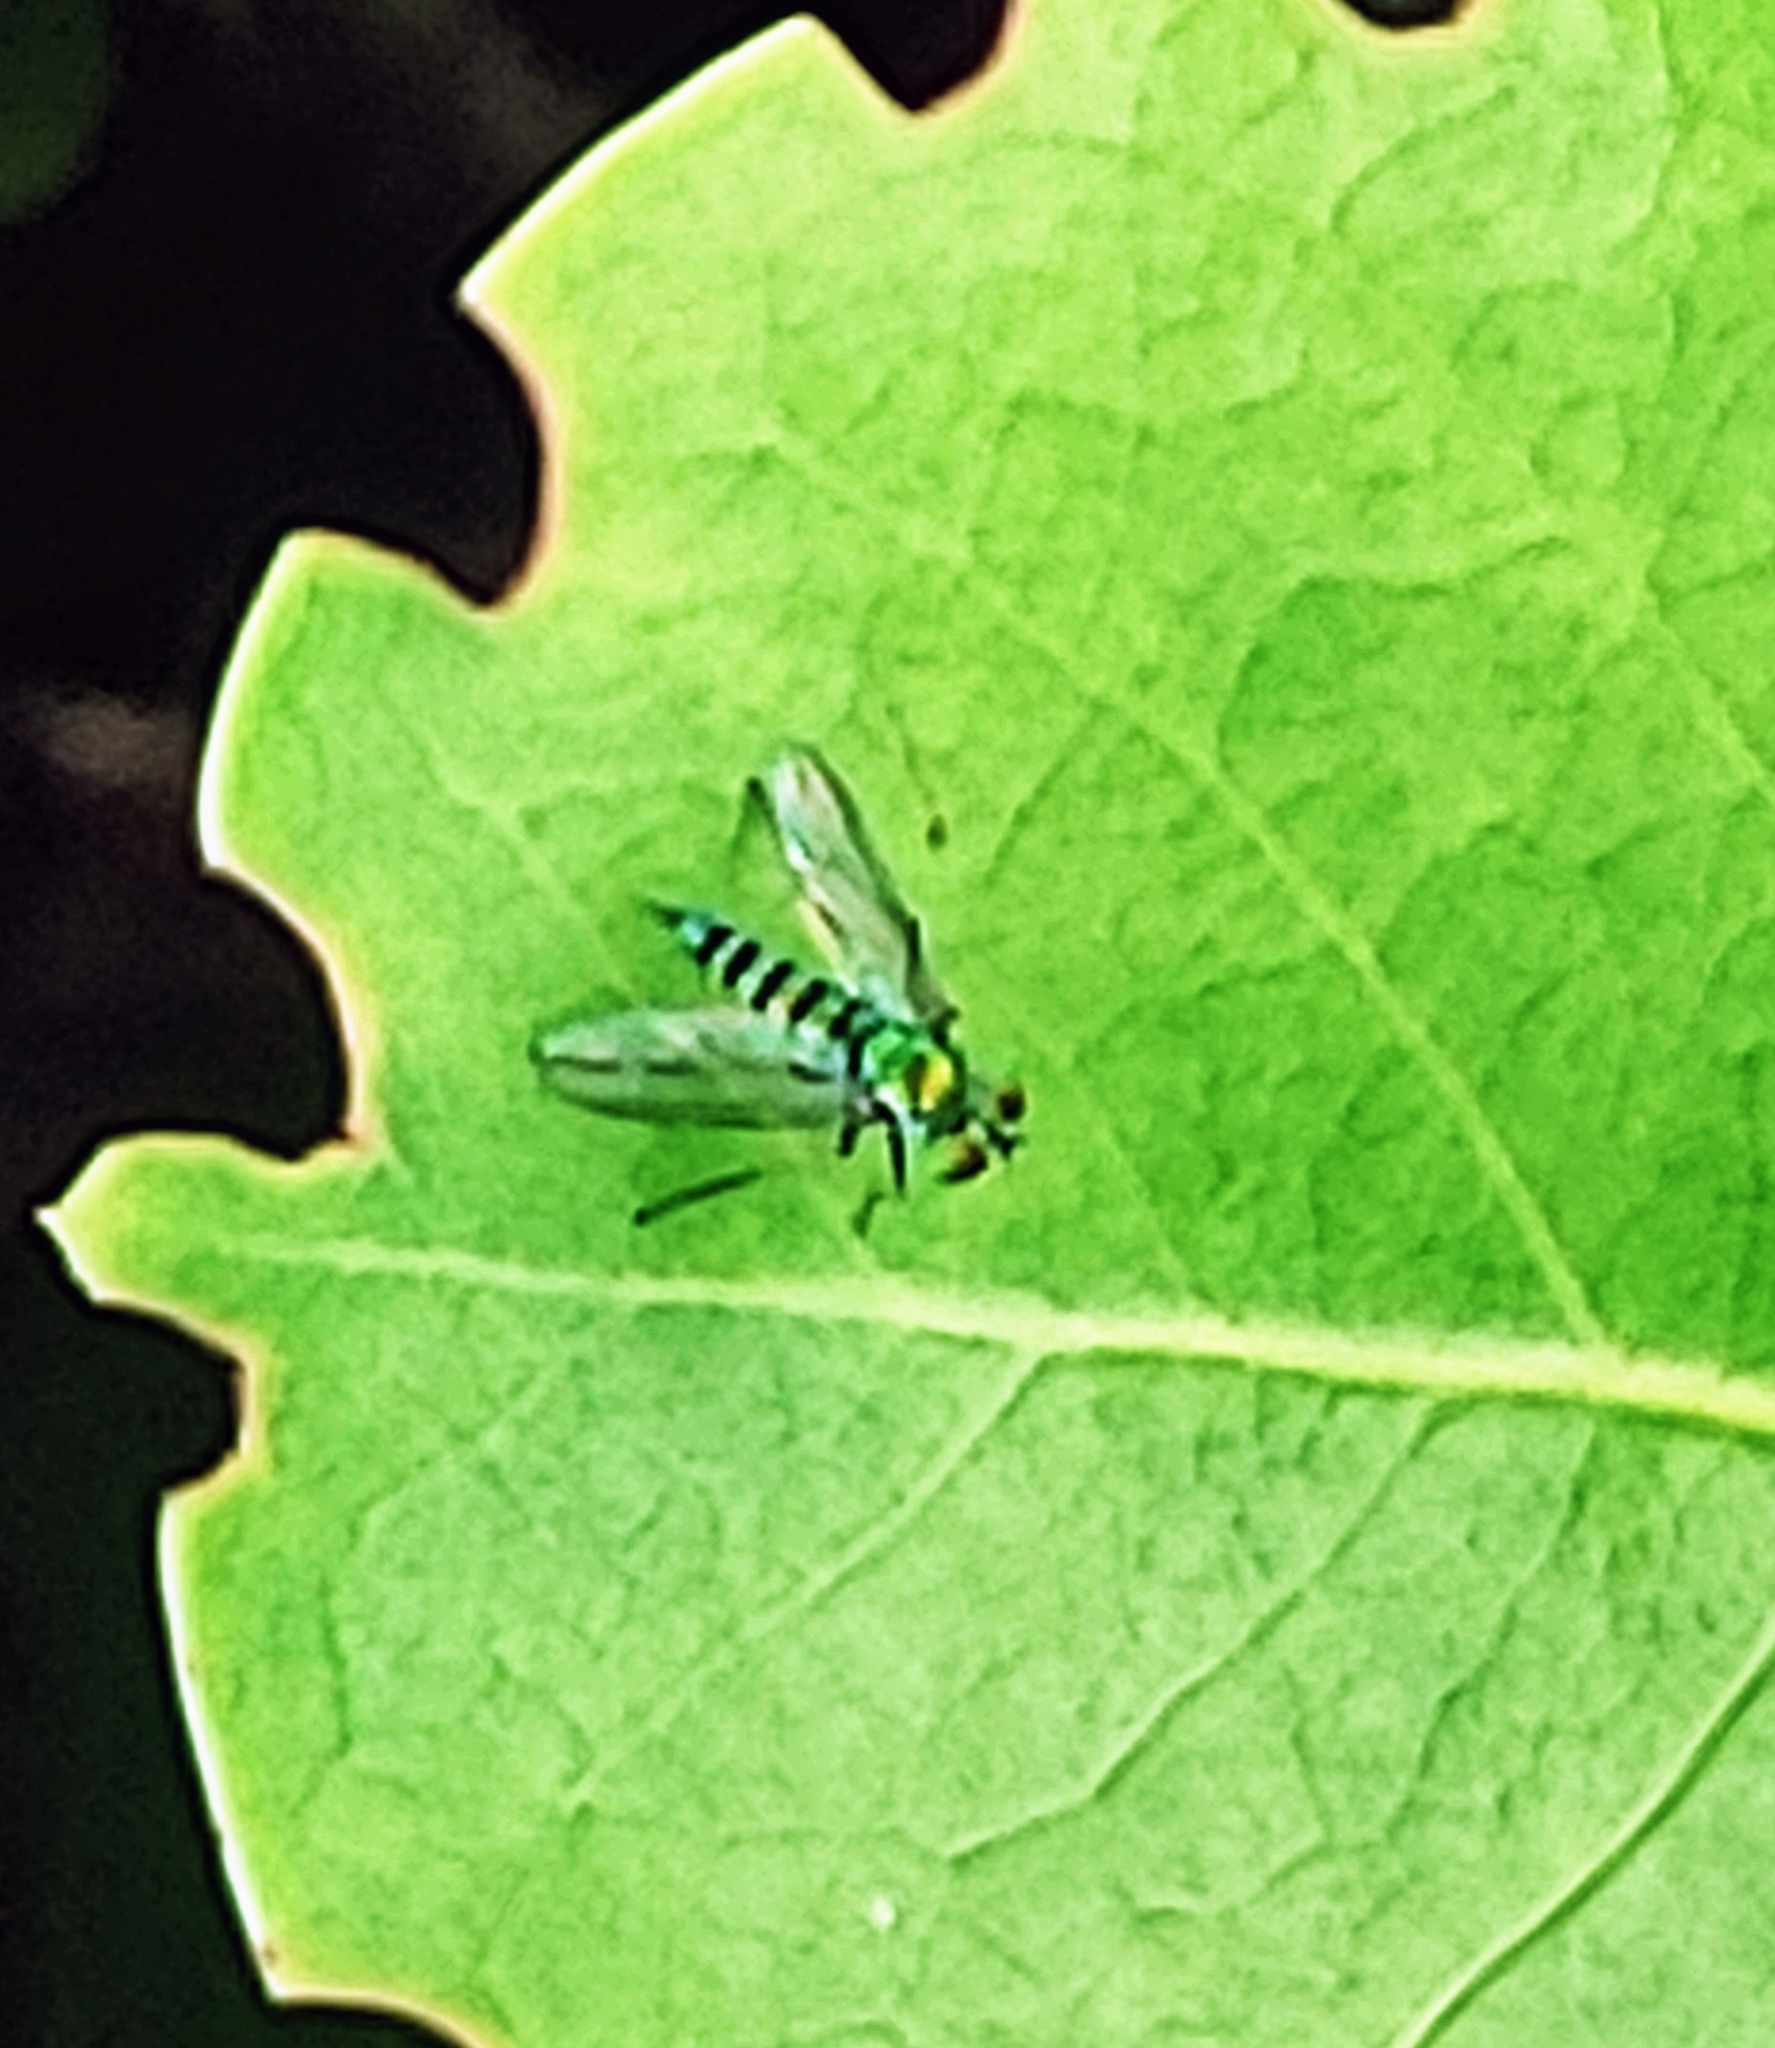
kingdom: Animalia
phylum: Arthropoda
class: Insecta
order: Diptera
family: Dolichopodidae
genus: Condylostylus
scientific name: Condylostylus graenicheri
